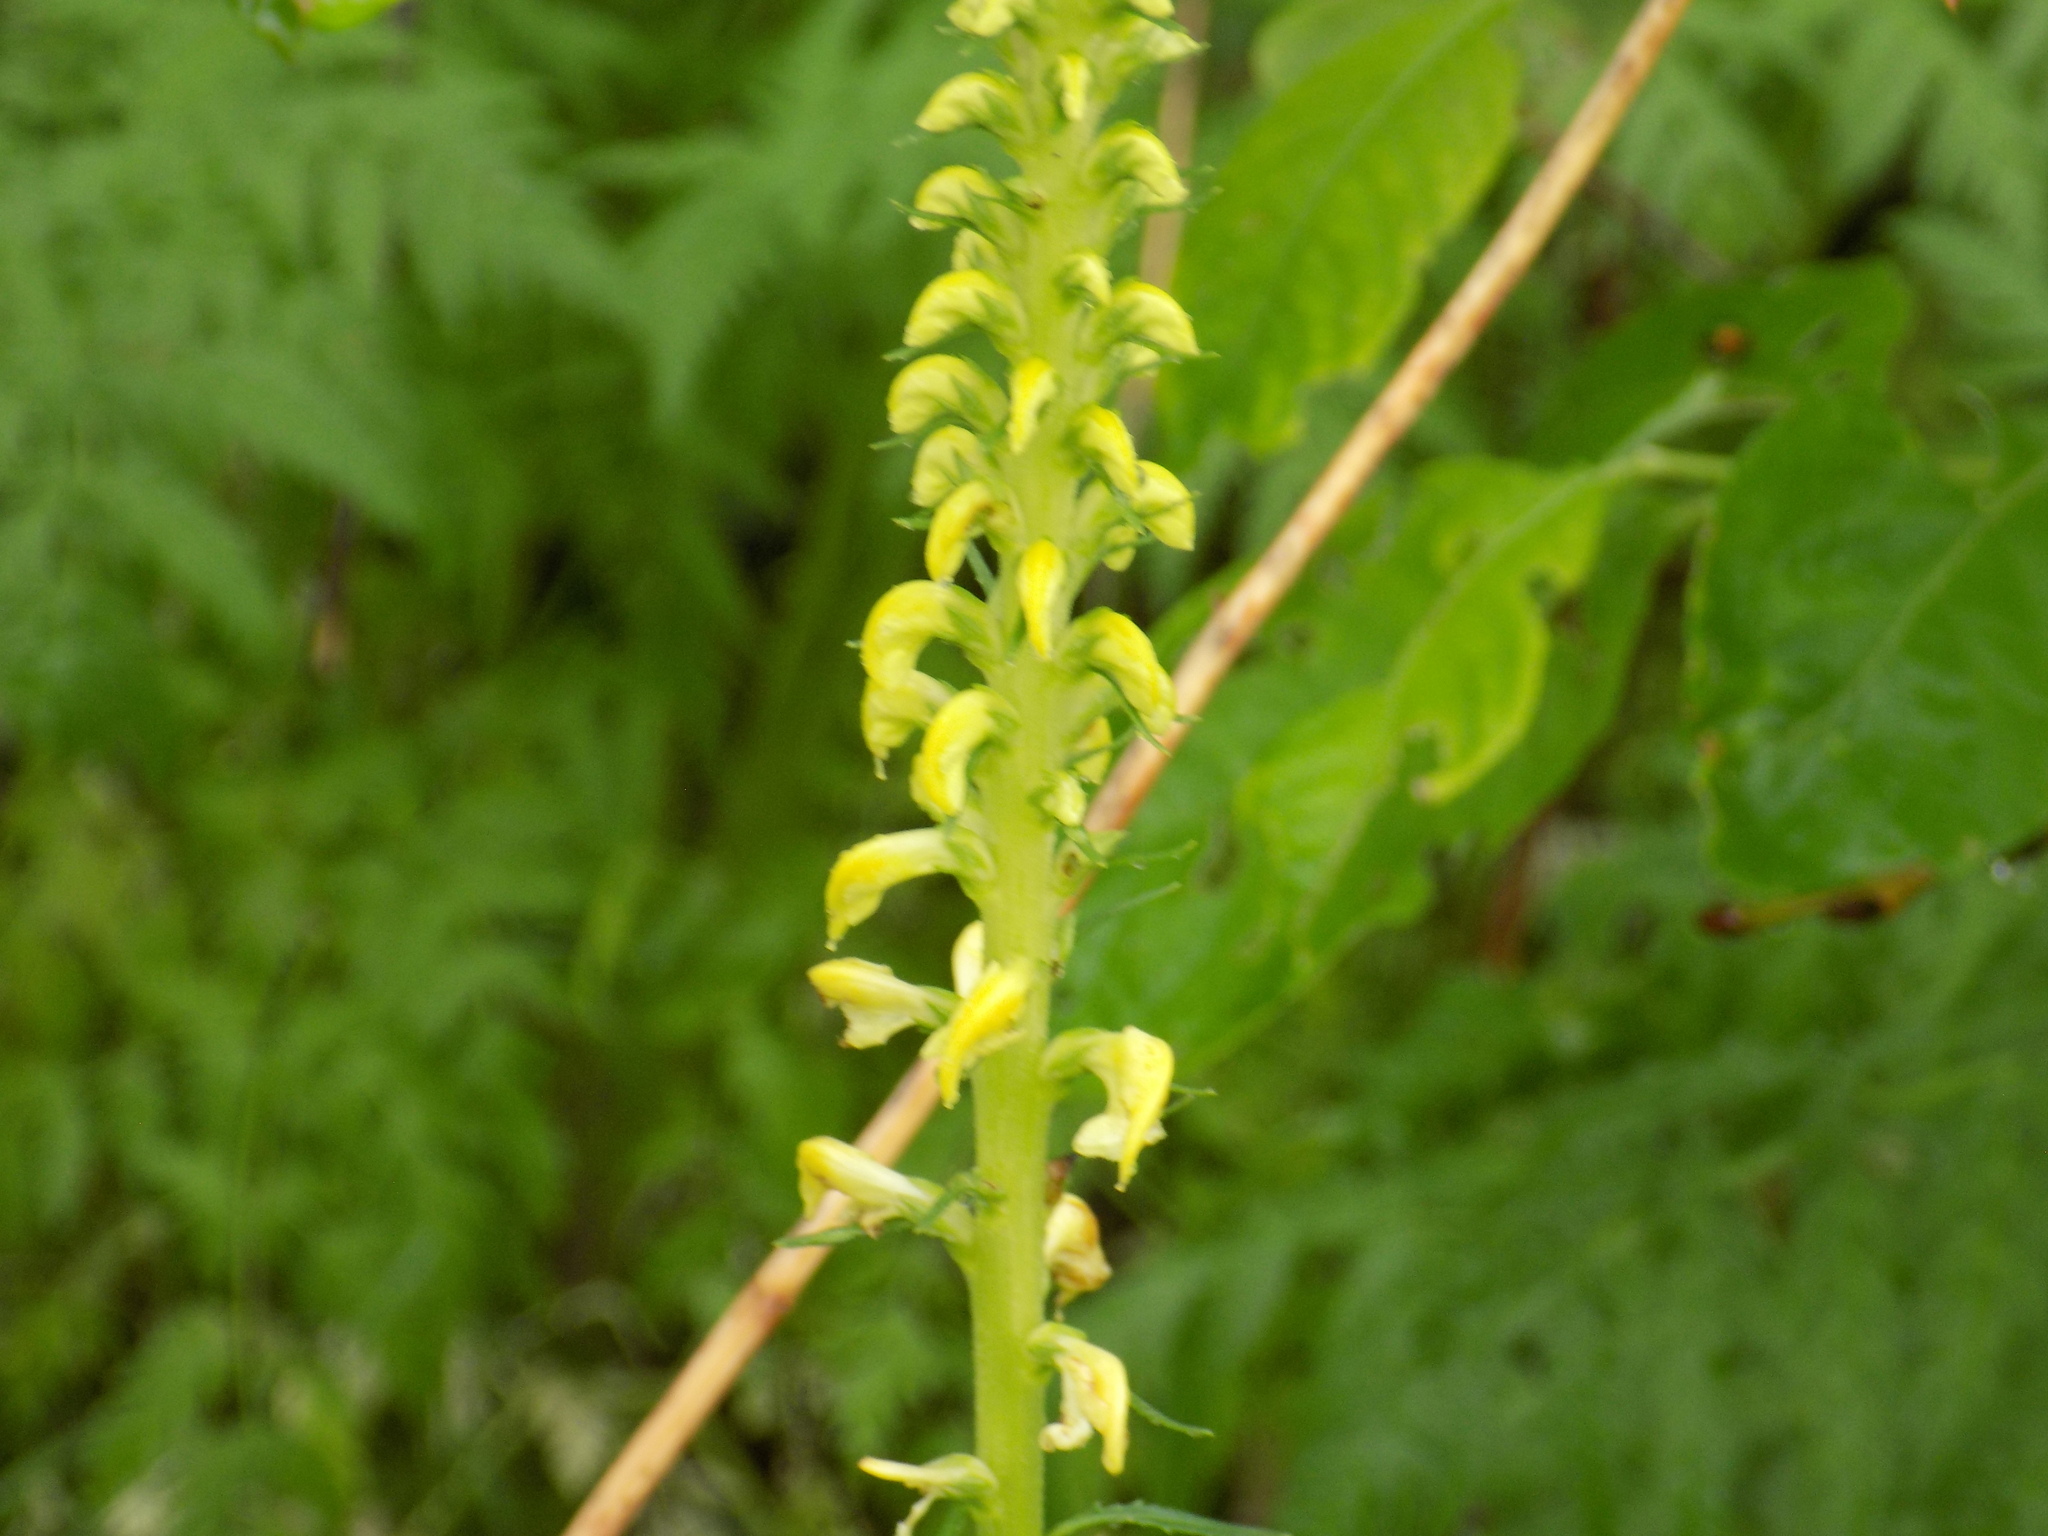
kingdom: Plantae
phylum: Tracheophyta
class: Magnoliopsida
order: Lamiales
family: Orobanchaceae
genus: Pedicularis
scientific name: Pedicularis incarnata
